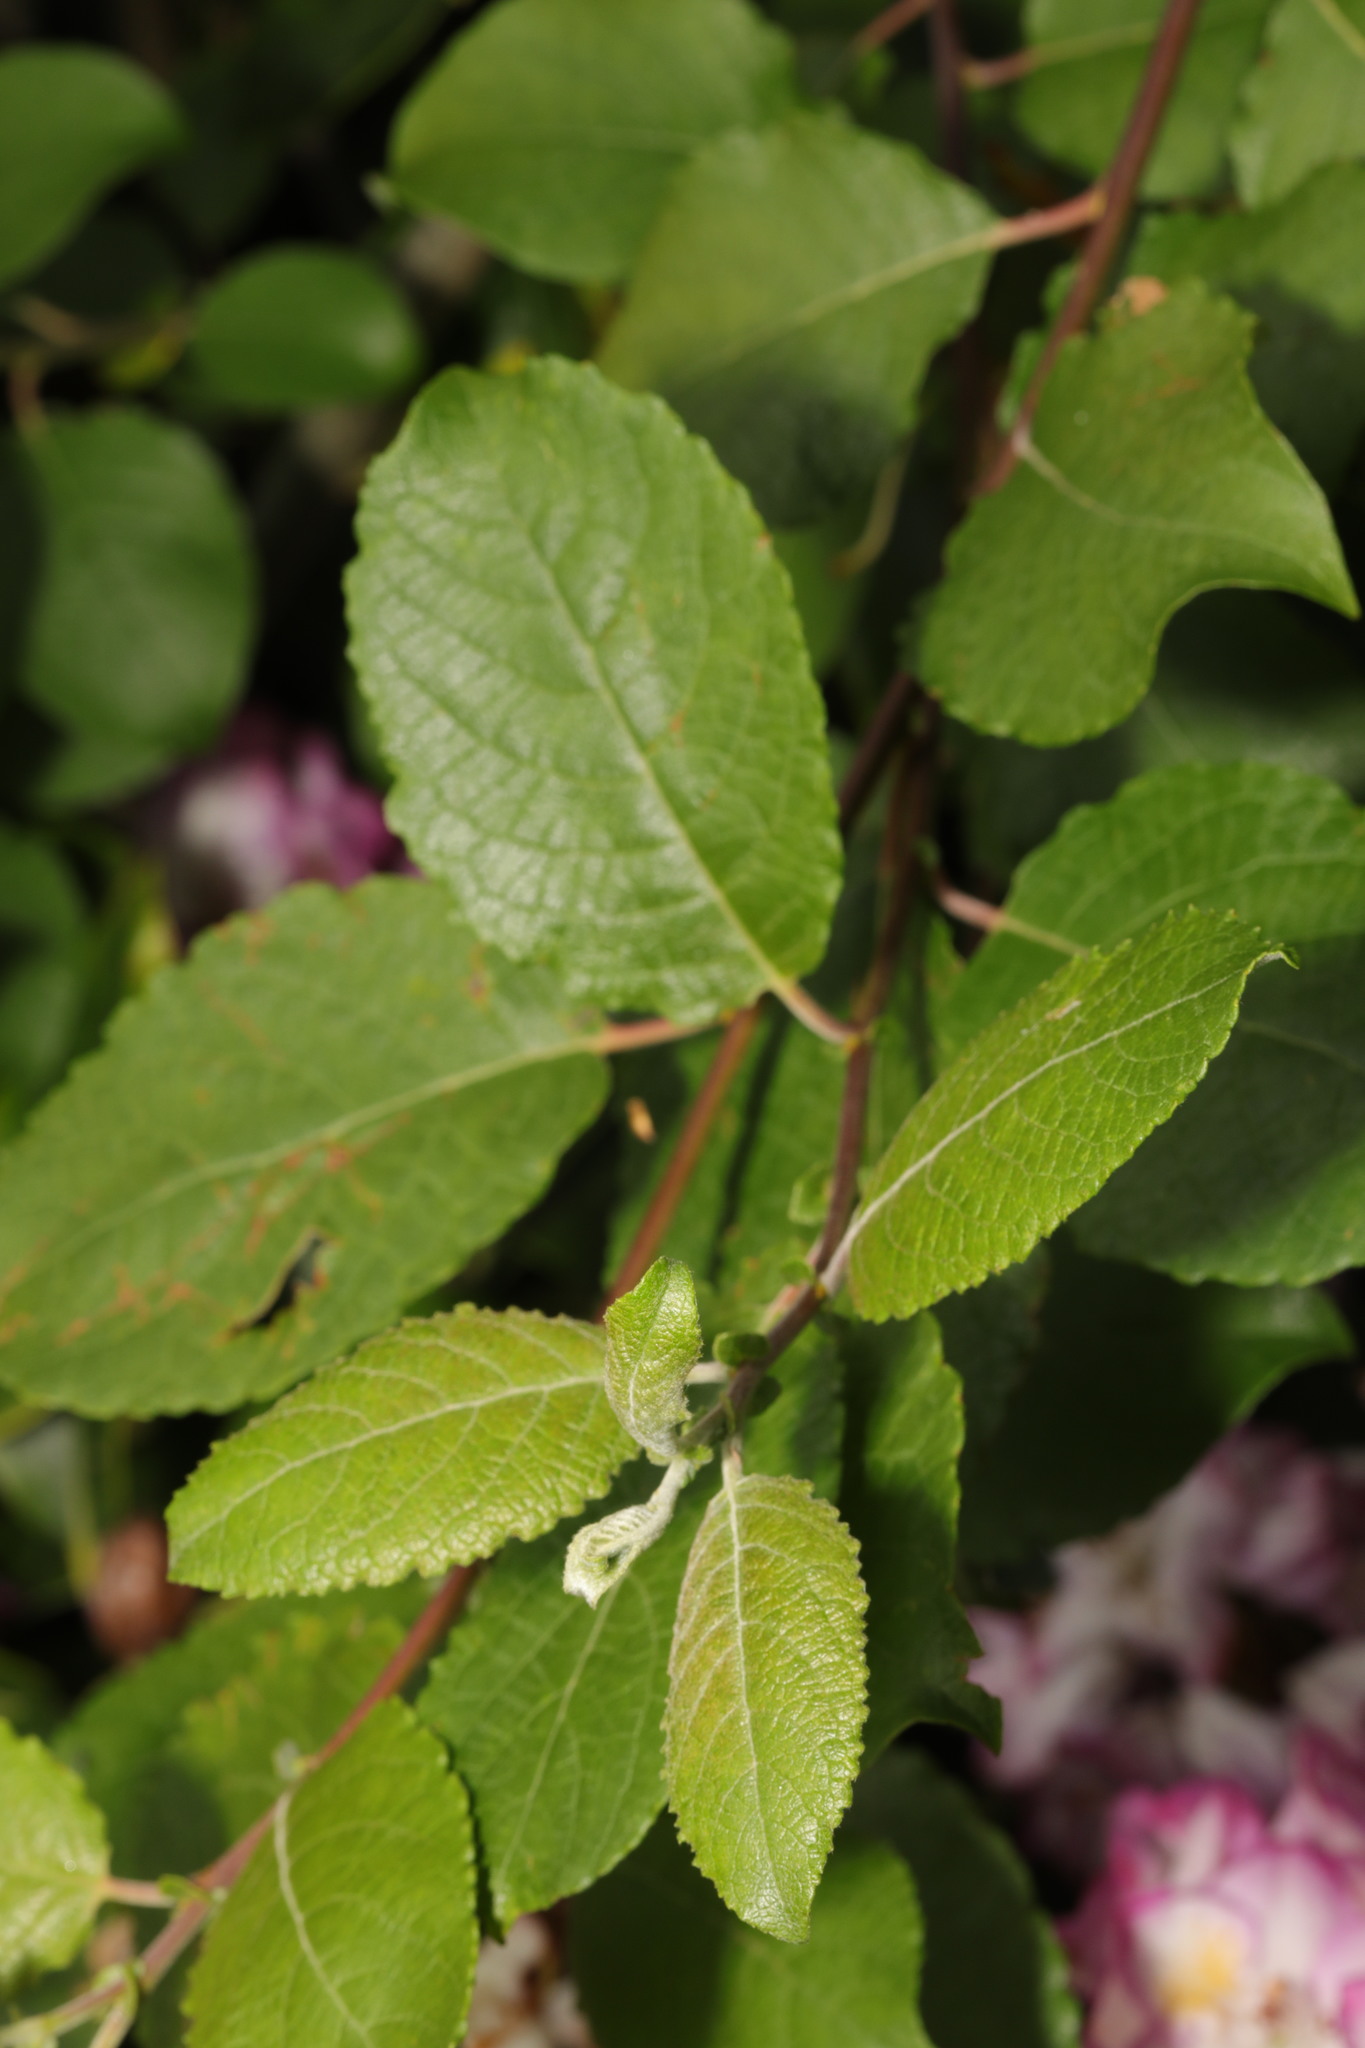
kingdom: Plantae
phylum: Tracheophyta
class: Magnoliopsida
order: Malpighiales
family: Salicaceae
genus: Salix
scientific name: Salix caprea
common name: Goat willow
